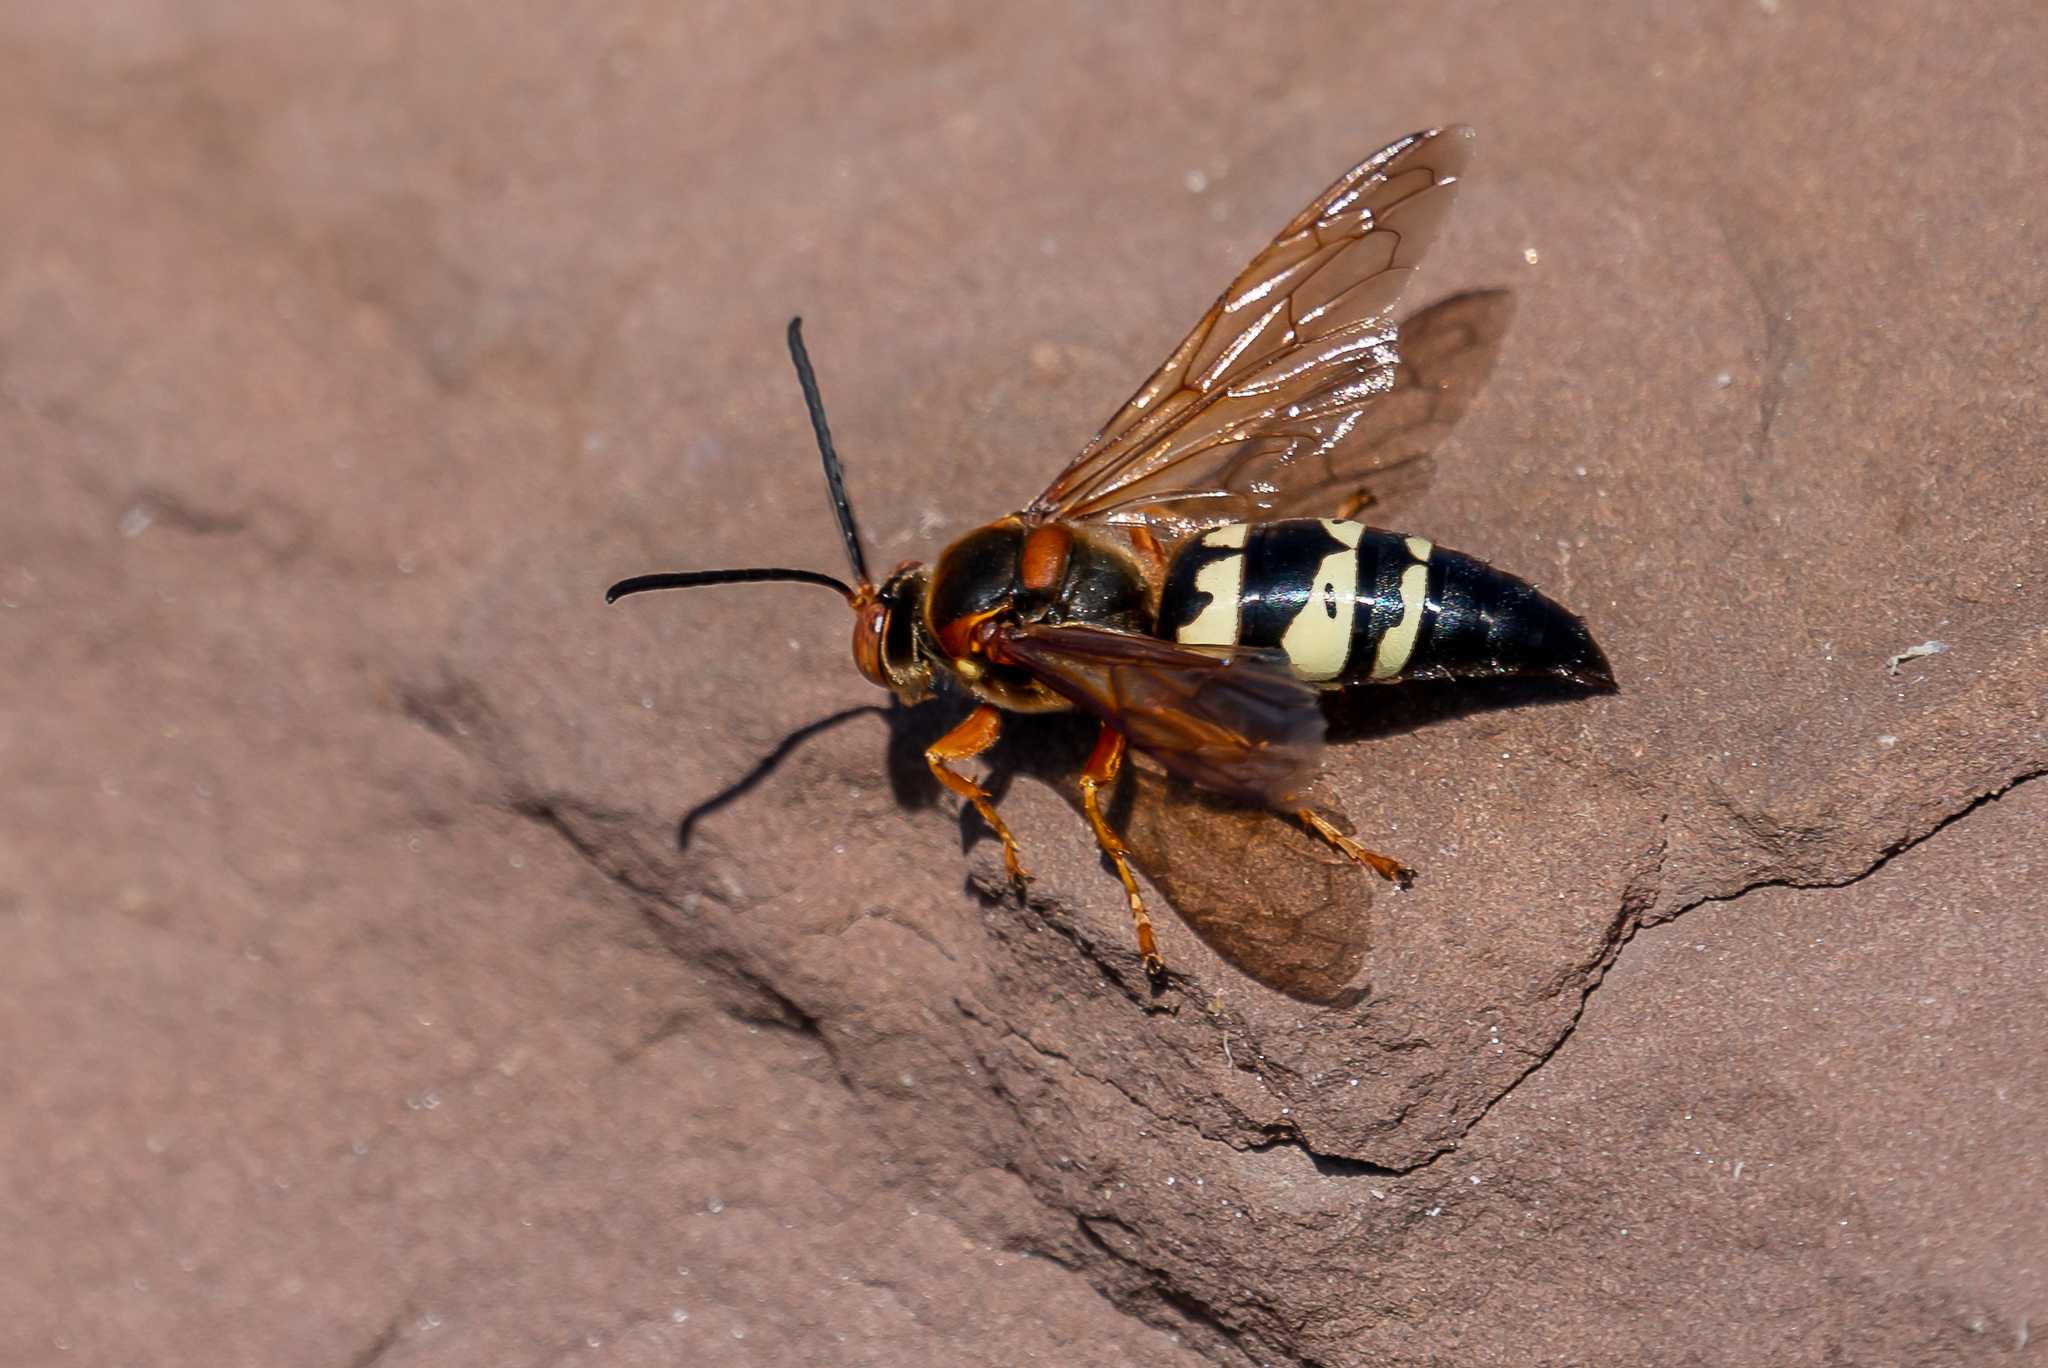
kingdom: Animalia
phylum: Arthropoda
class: Insecta
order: Hymenoptera
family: Crabronidae
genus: Sphecius
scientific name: Sphecius speciosus
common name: Cicada killer
